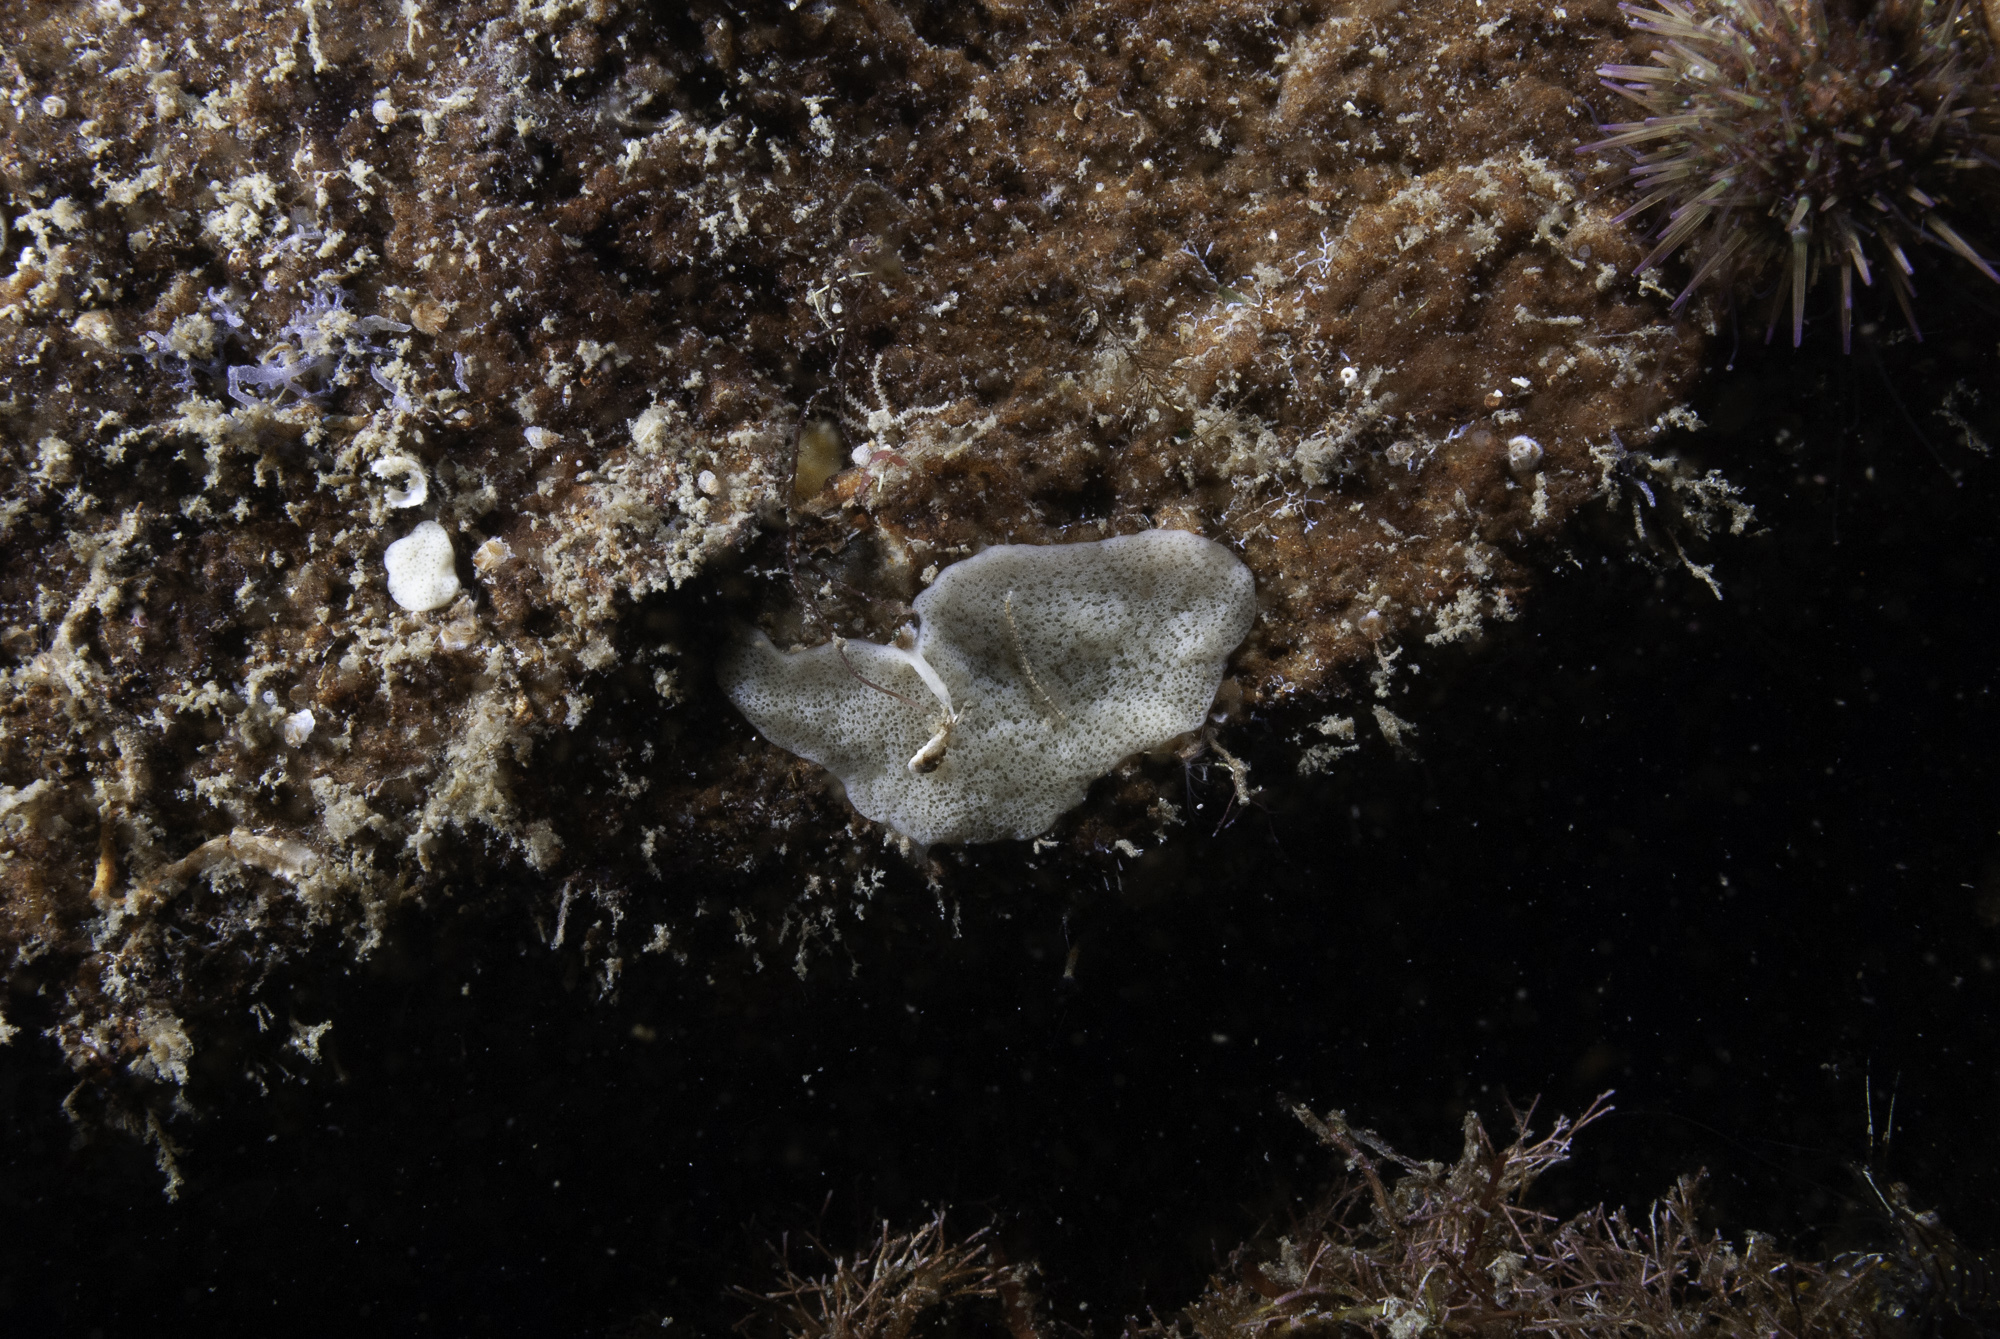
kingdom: Animalia
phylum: Porifera
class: Homoscleromorpha
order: Homosclerophorida
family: Plakinidae
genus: Plakina
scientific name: Plakina monolopha
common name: Simple-rayed membrane sponge
